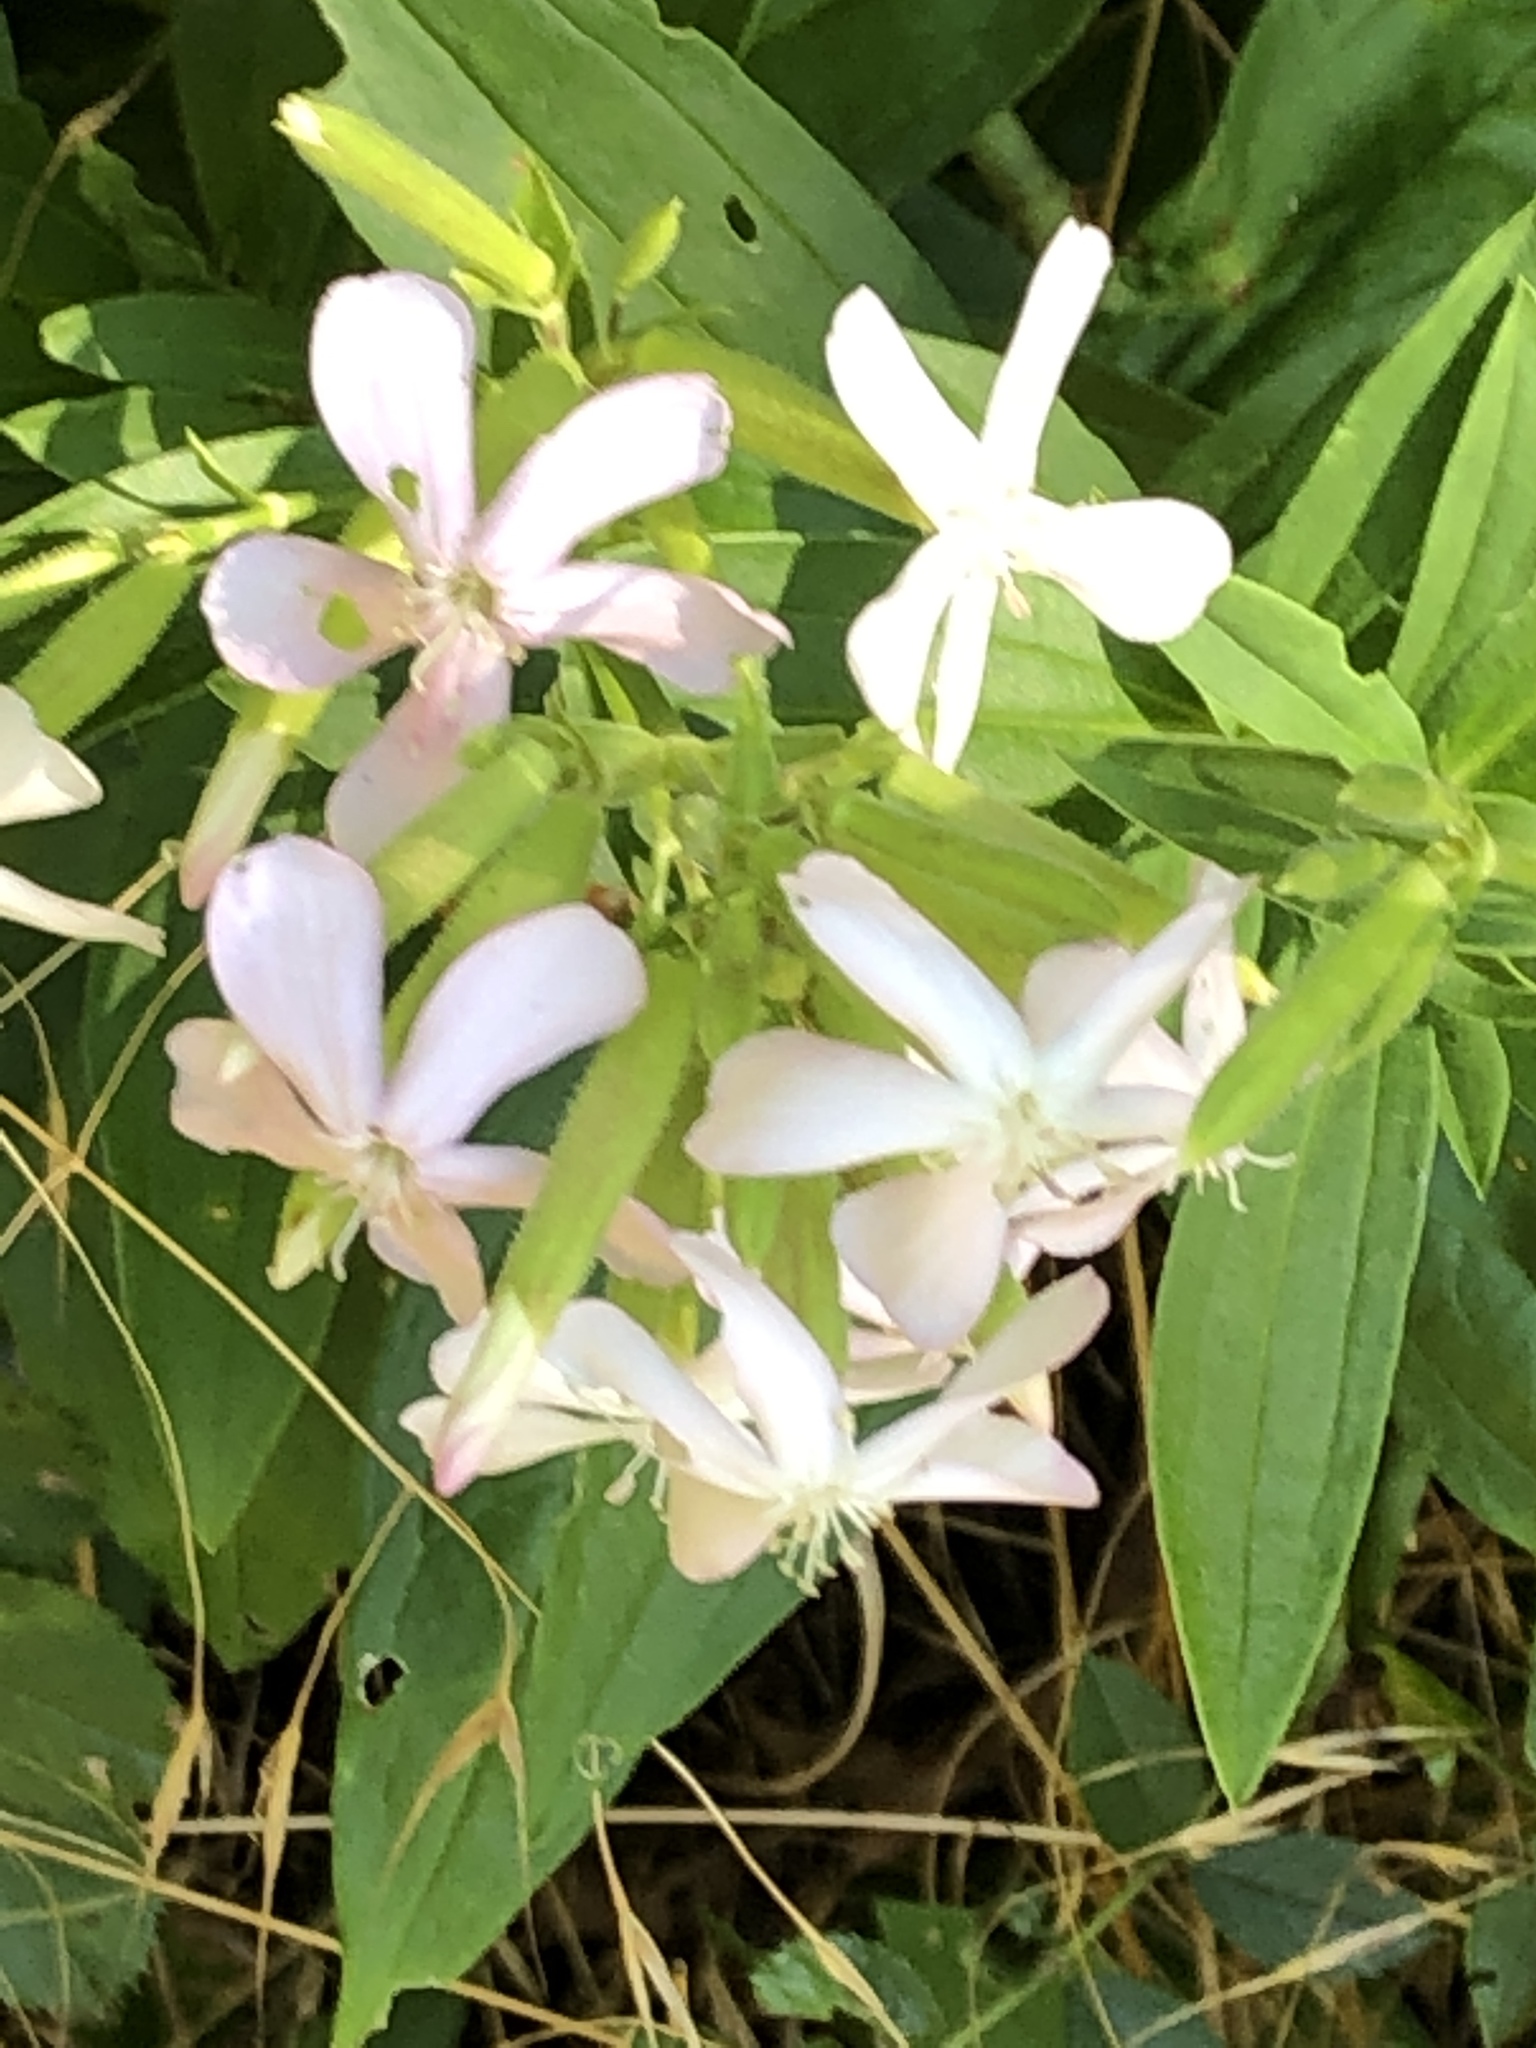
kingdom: Plantae
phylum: Tracheophyta
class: Magnoliopsida
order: Caryophyllales
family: Caryophyllaceae
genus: Saponaria
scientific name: Saponaria officinalis
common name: Soapwort
